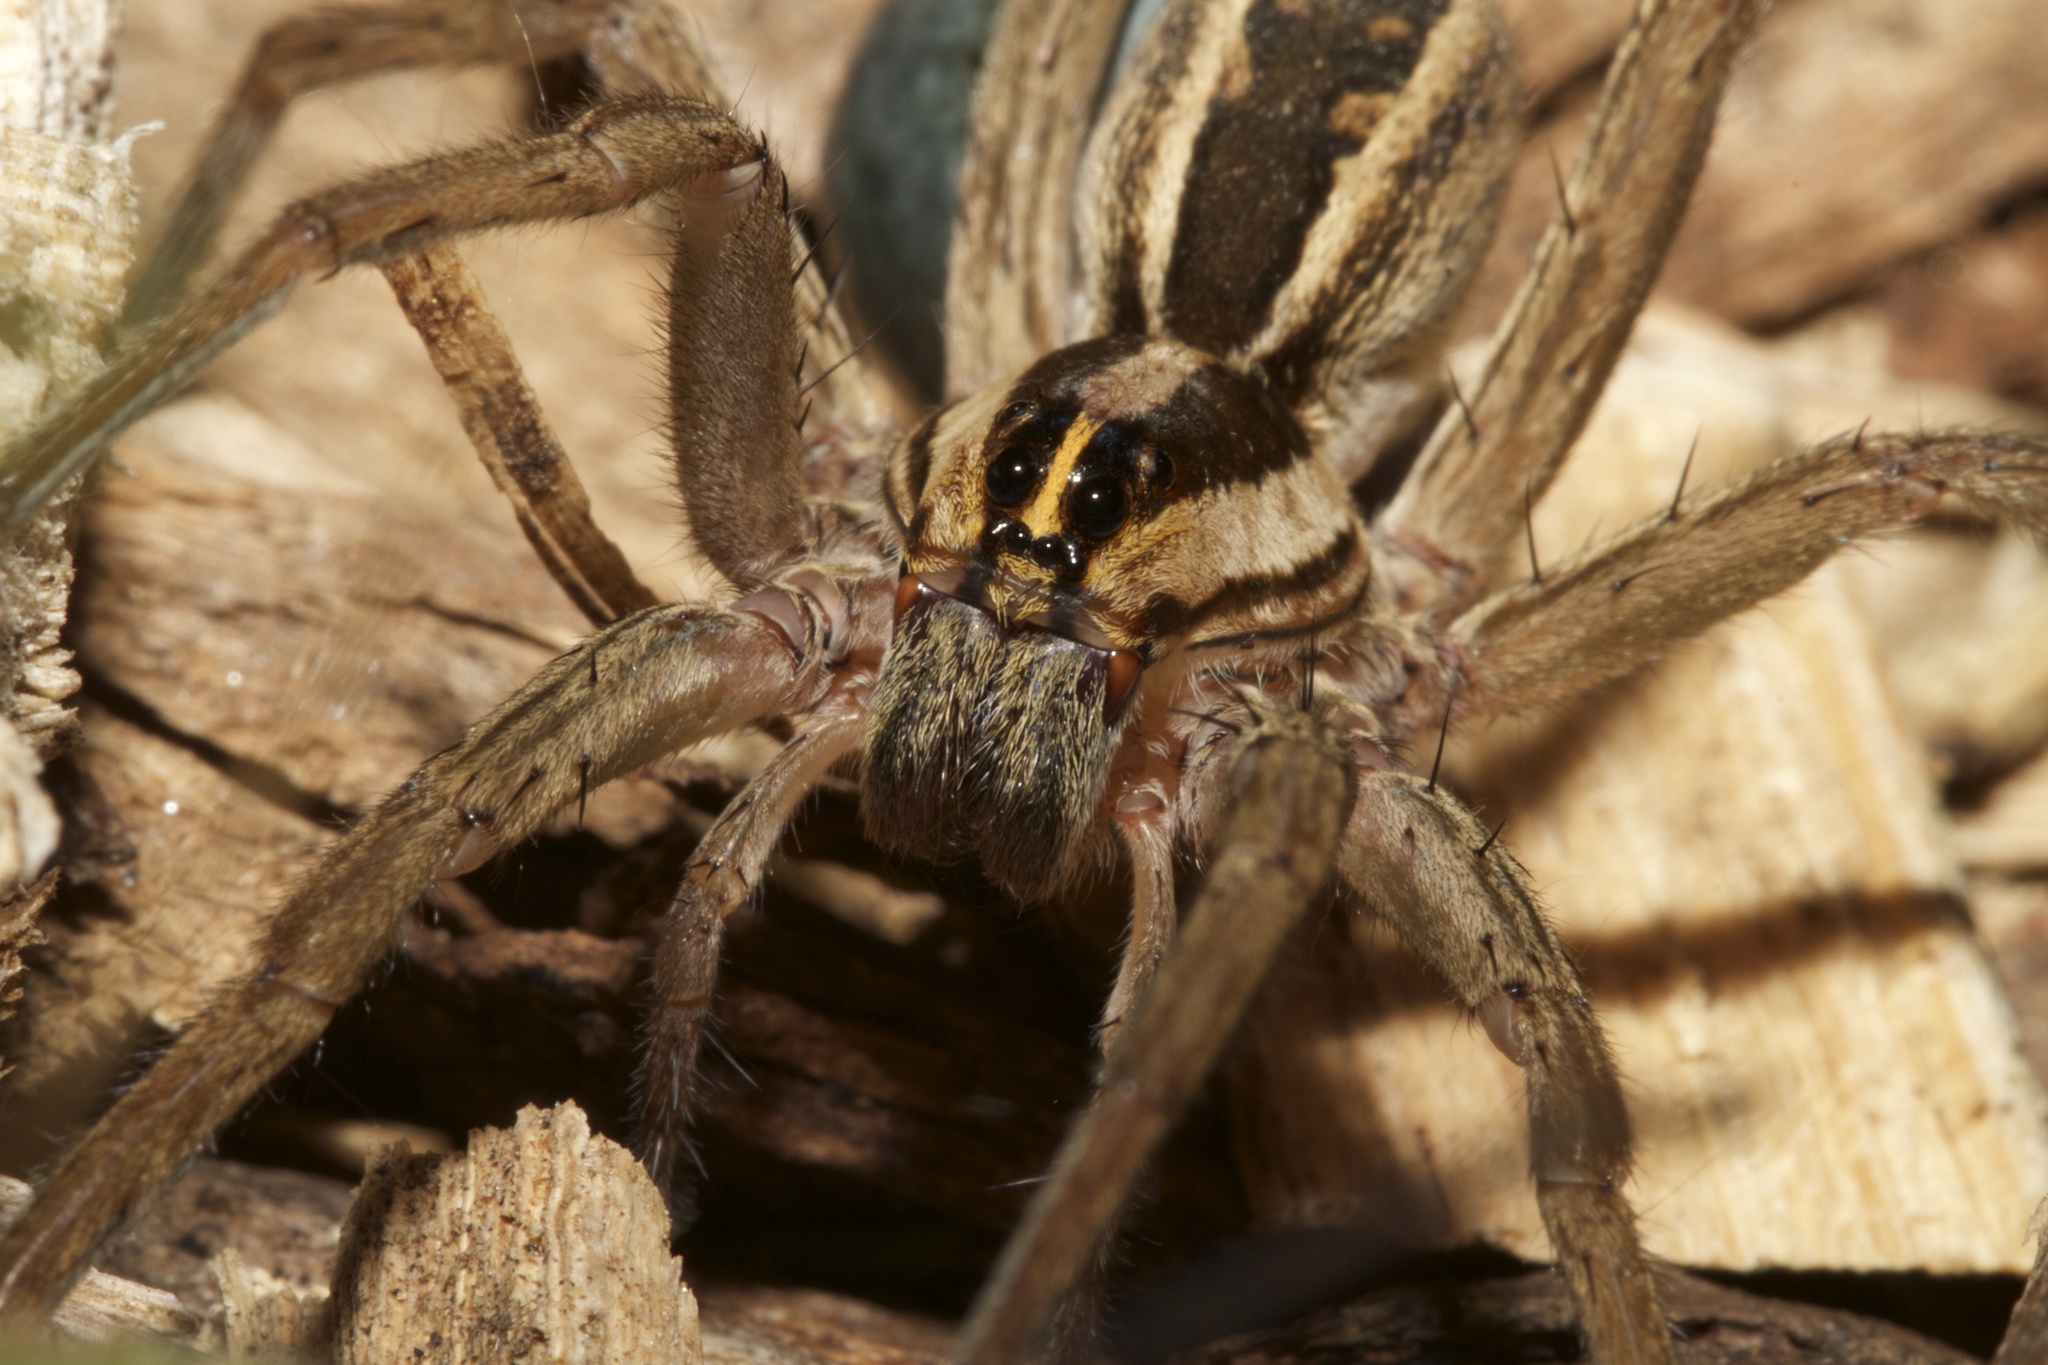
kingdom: Animalia
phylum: Arthropoda
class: Arachnida
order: Araneae
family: Lycosidae
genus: Rabidosa
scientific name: Rabidosa rabida
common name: Rabid wolf spider
